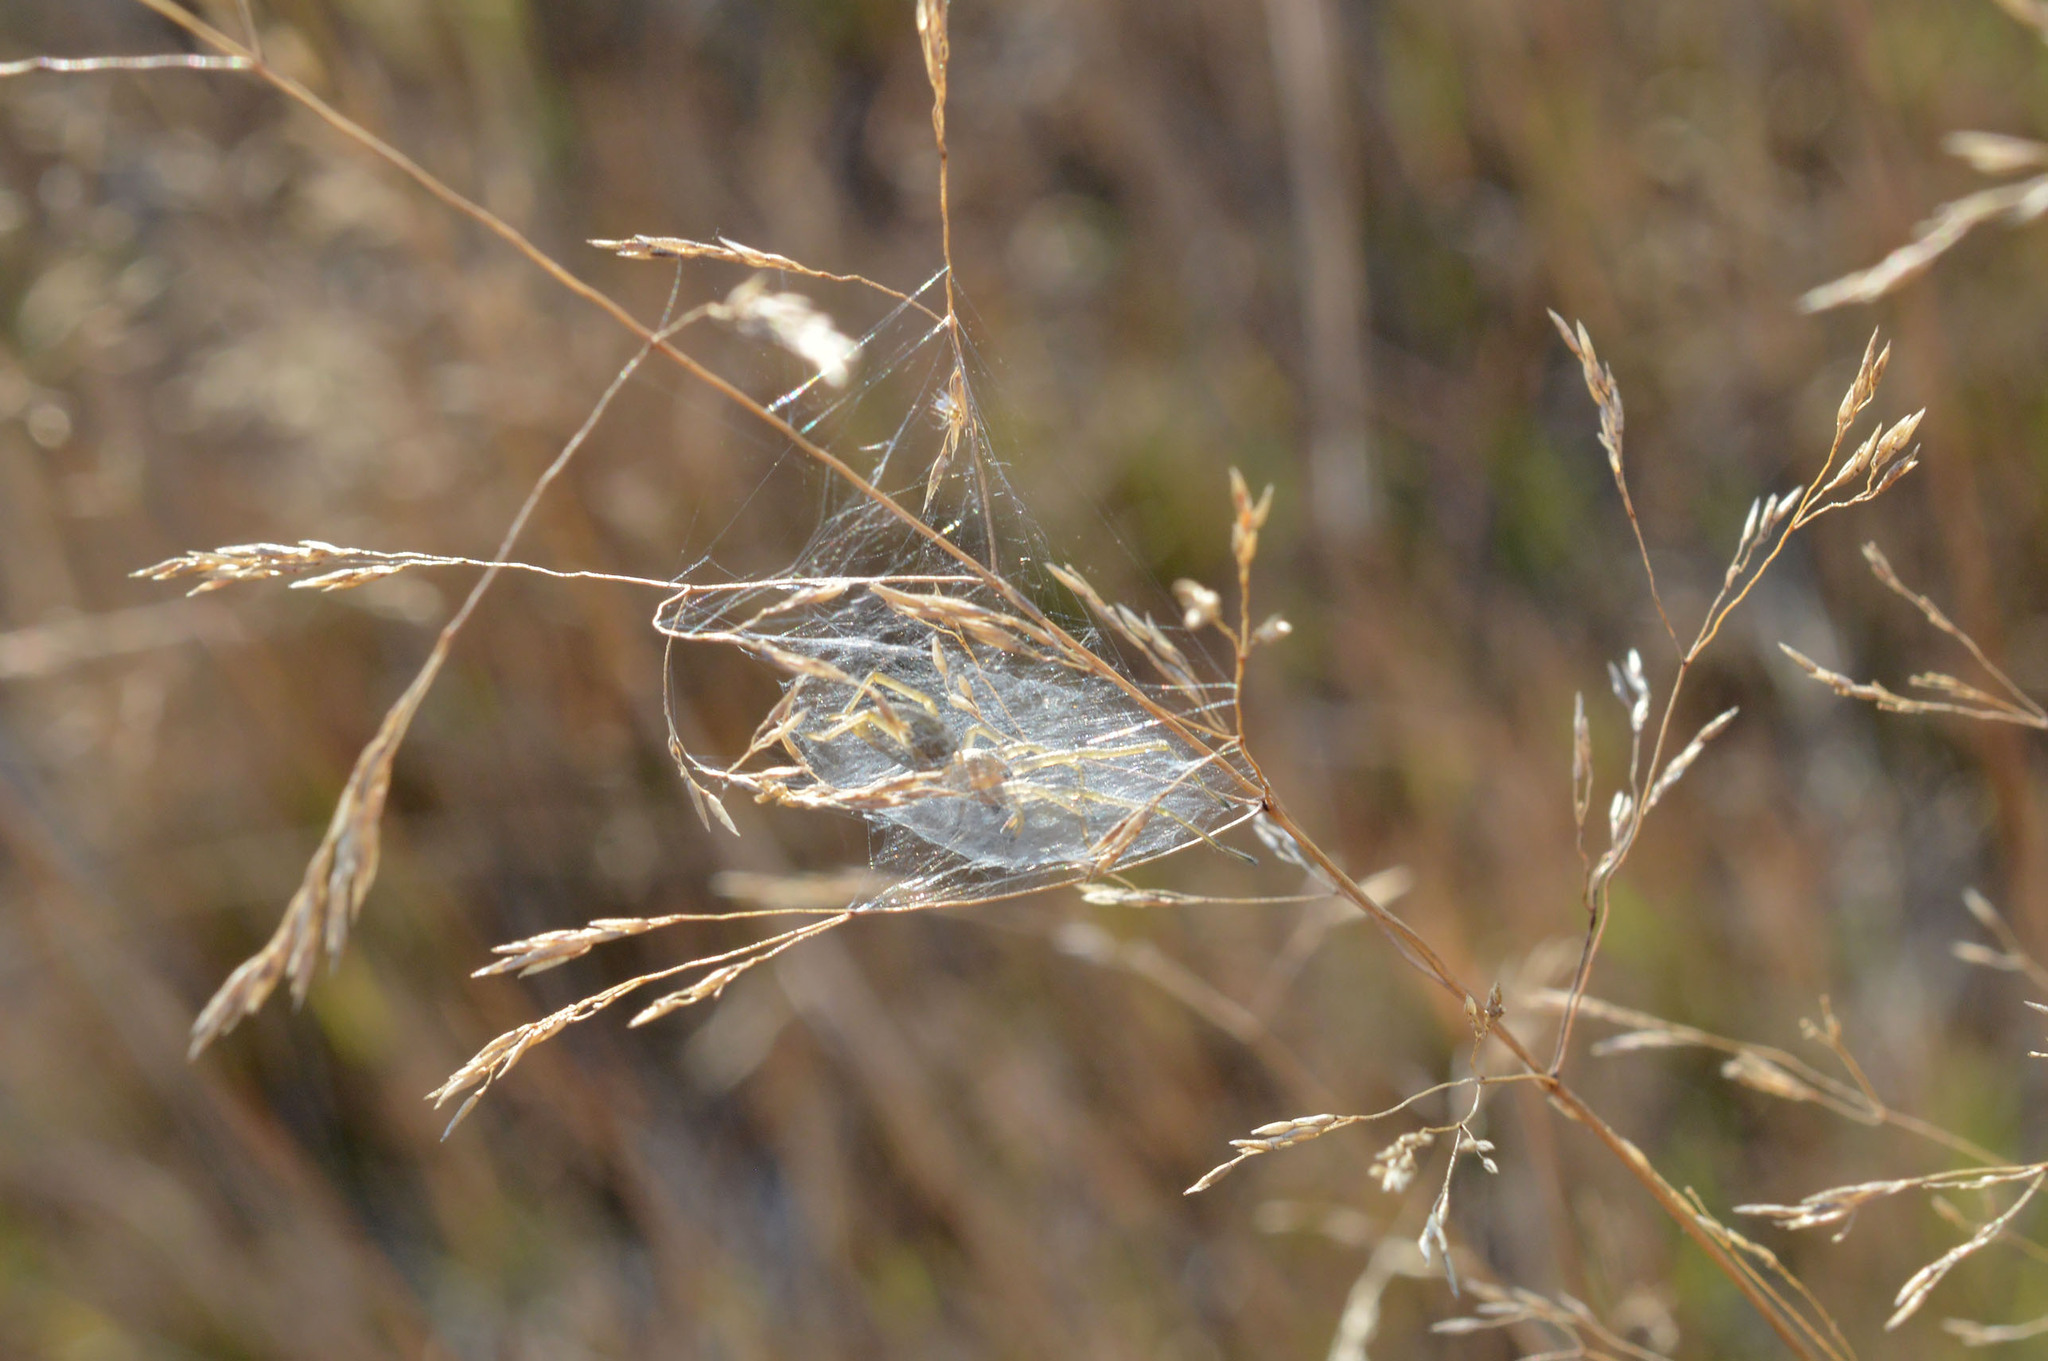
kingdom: Animalia
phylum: Arthropoda
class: Arachnida
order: Araneae
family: Cheiracanthiidae
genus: Cheiracanthium
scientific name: Cheiracanthium erraticum
